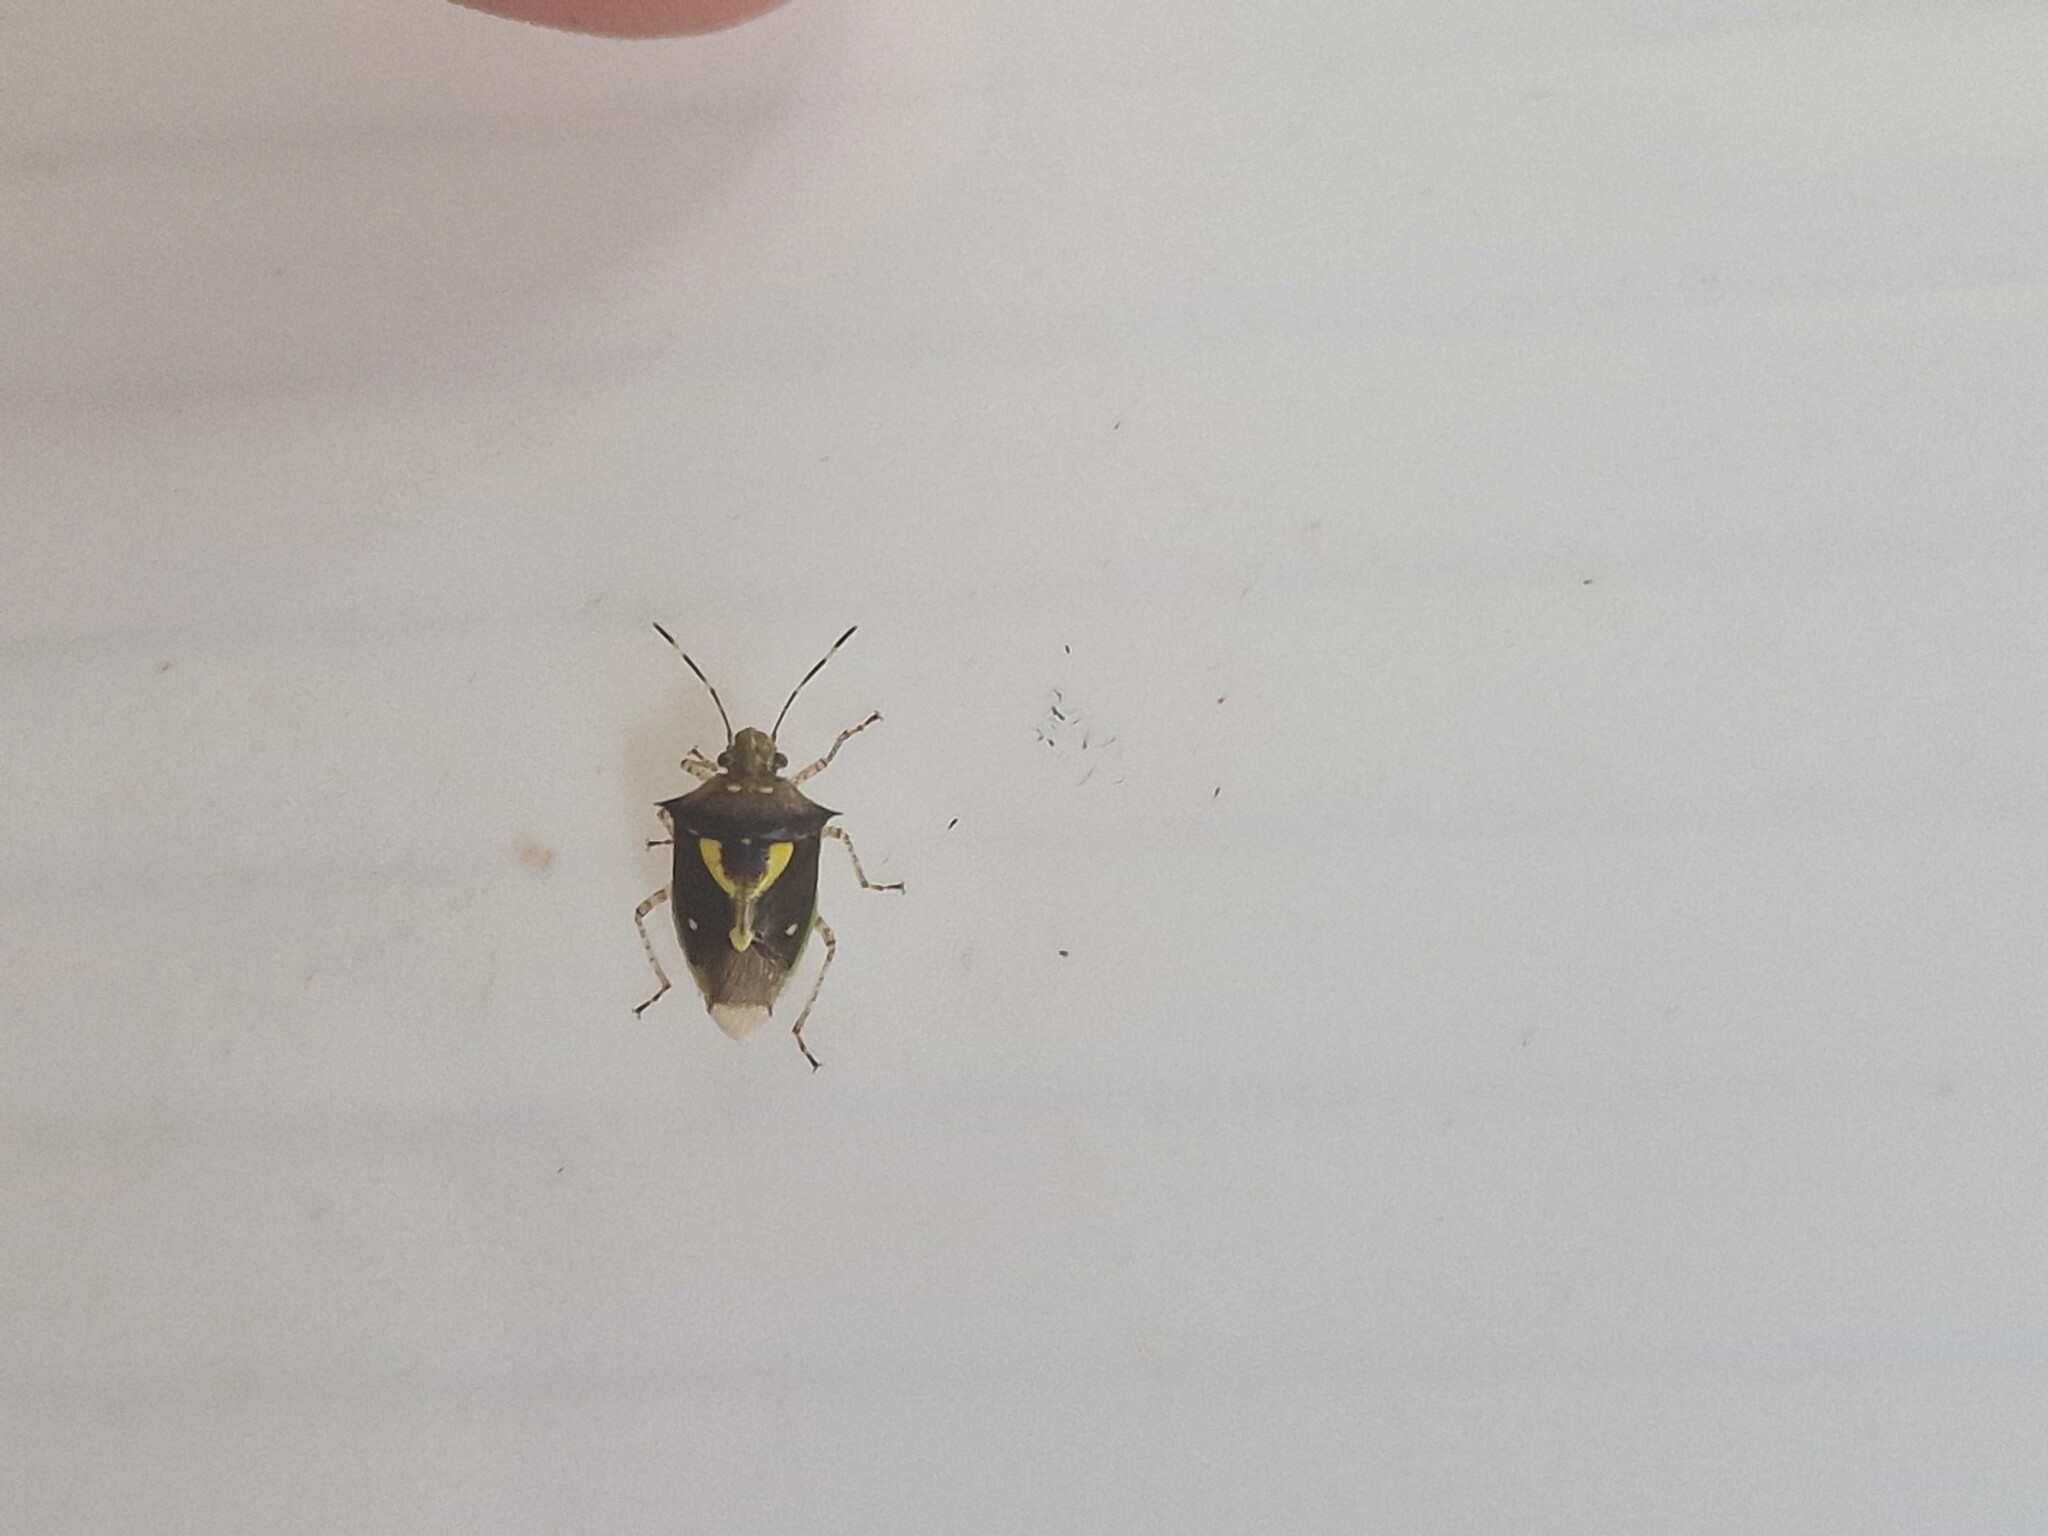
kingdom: Animalia
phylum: Arthropoda
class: Insecta
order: Hemiptera
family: Pentatomidae
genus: Mormidea
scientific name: Mormidea ypsilon
